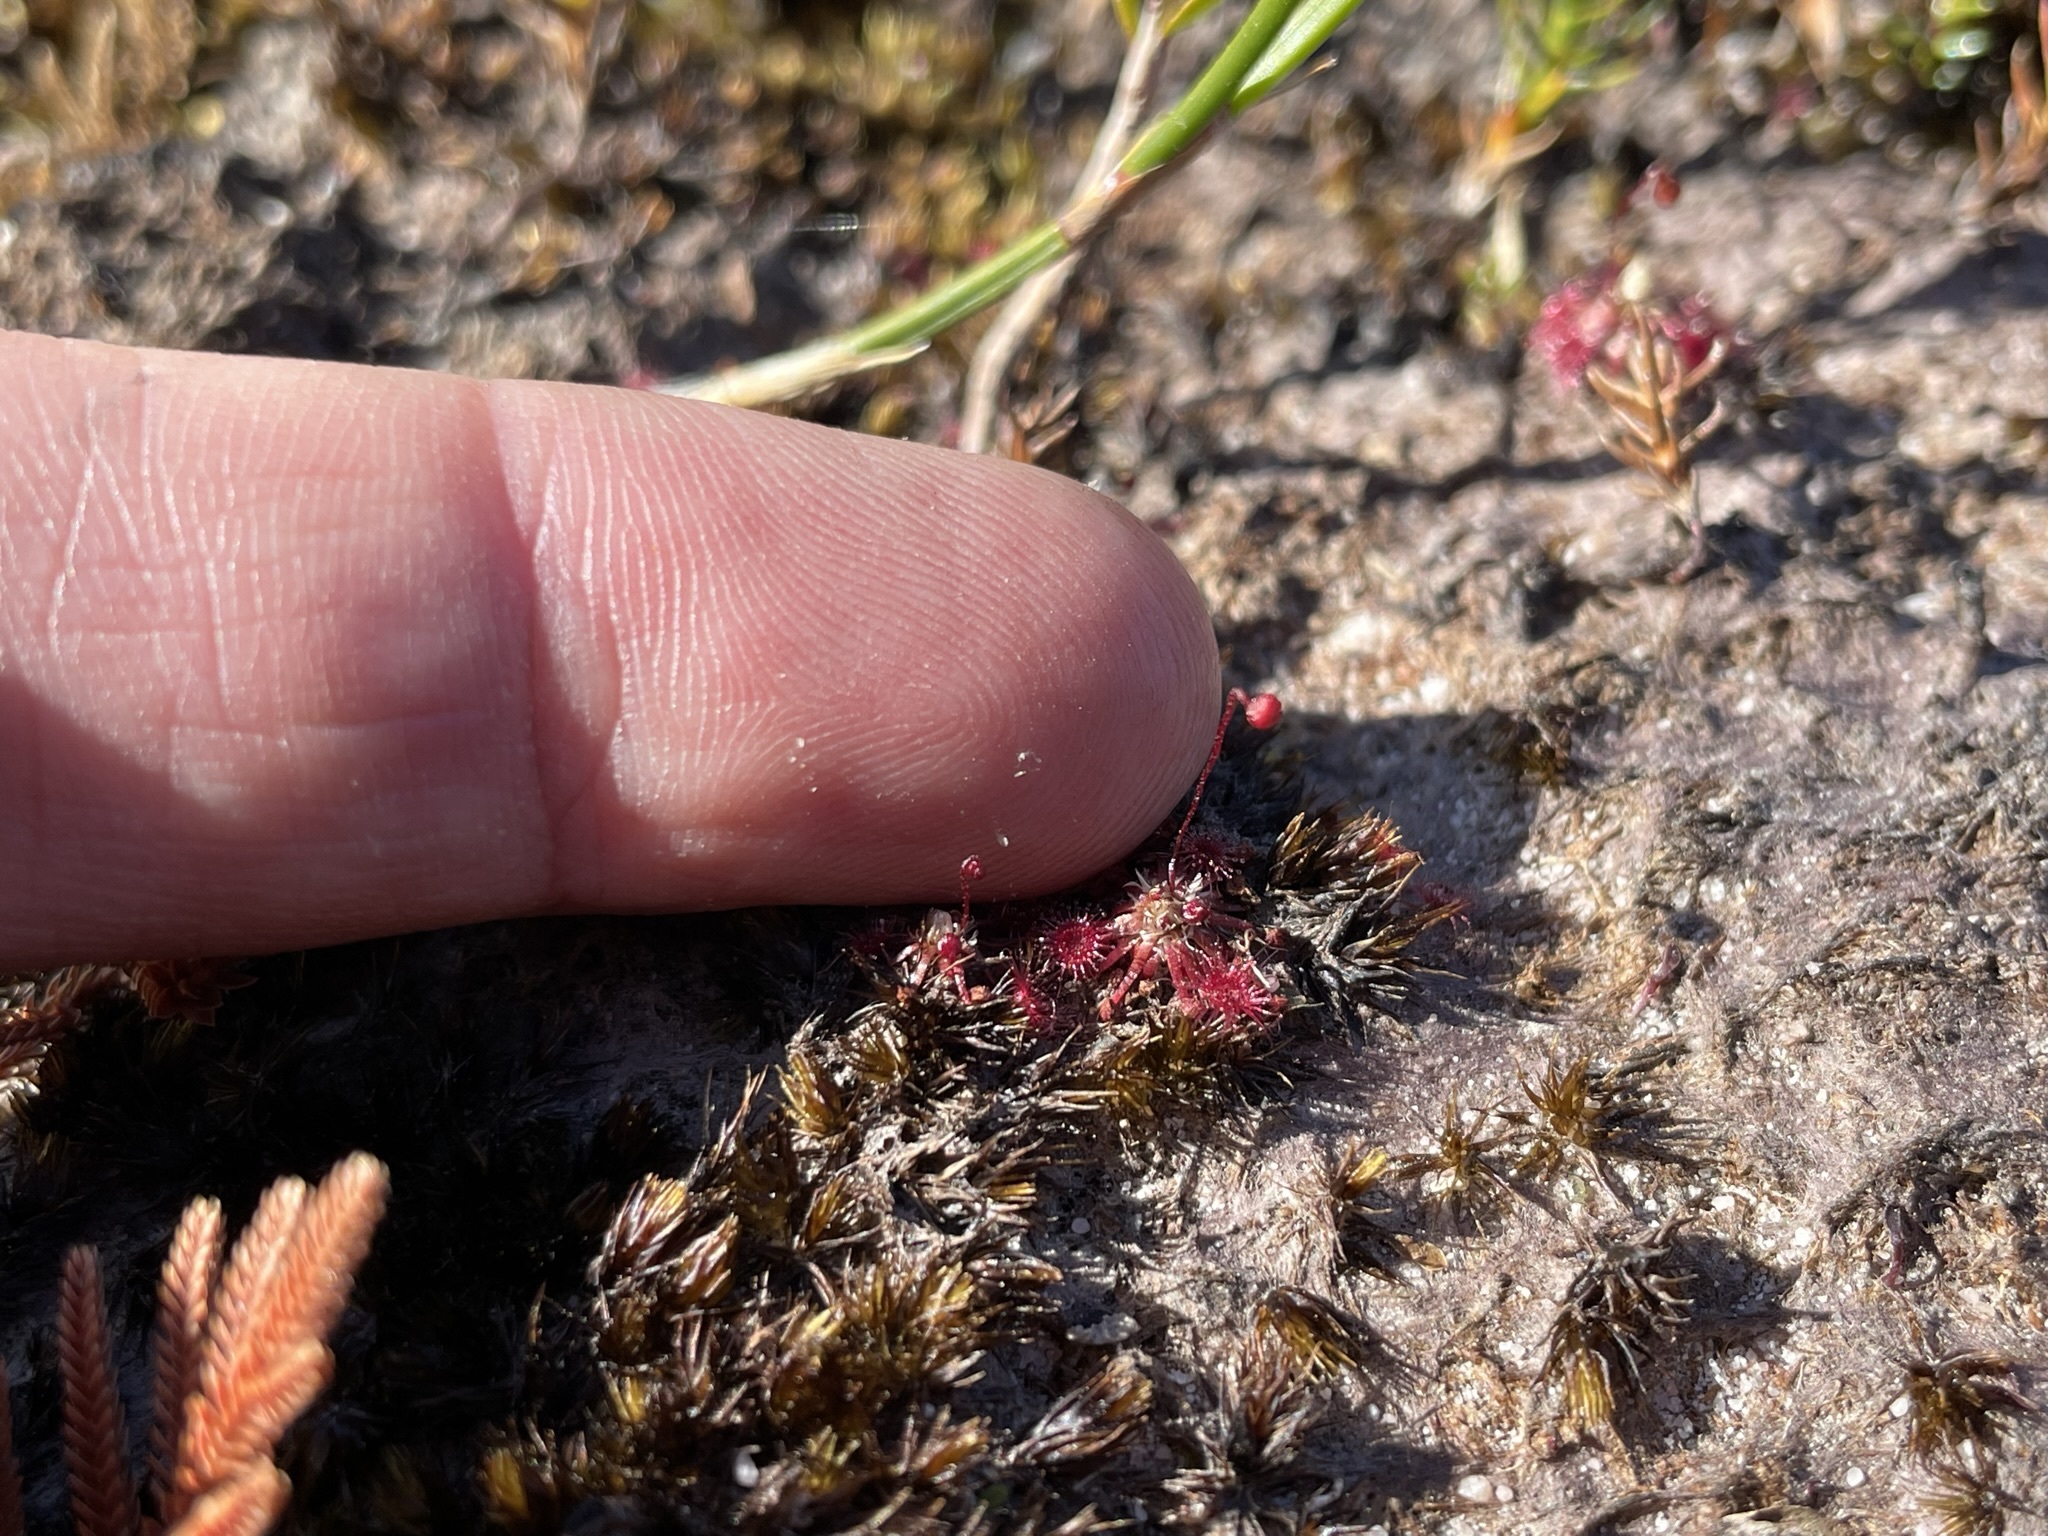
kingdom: Plantae
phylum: Tracheophyta
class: Magnoliopsida
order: Caryophyllales
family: Droseraceae
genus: Drosera
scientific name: Drosera pygmaea
